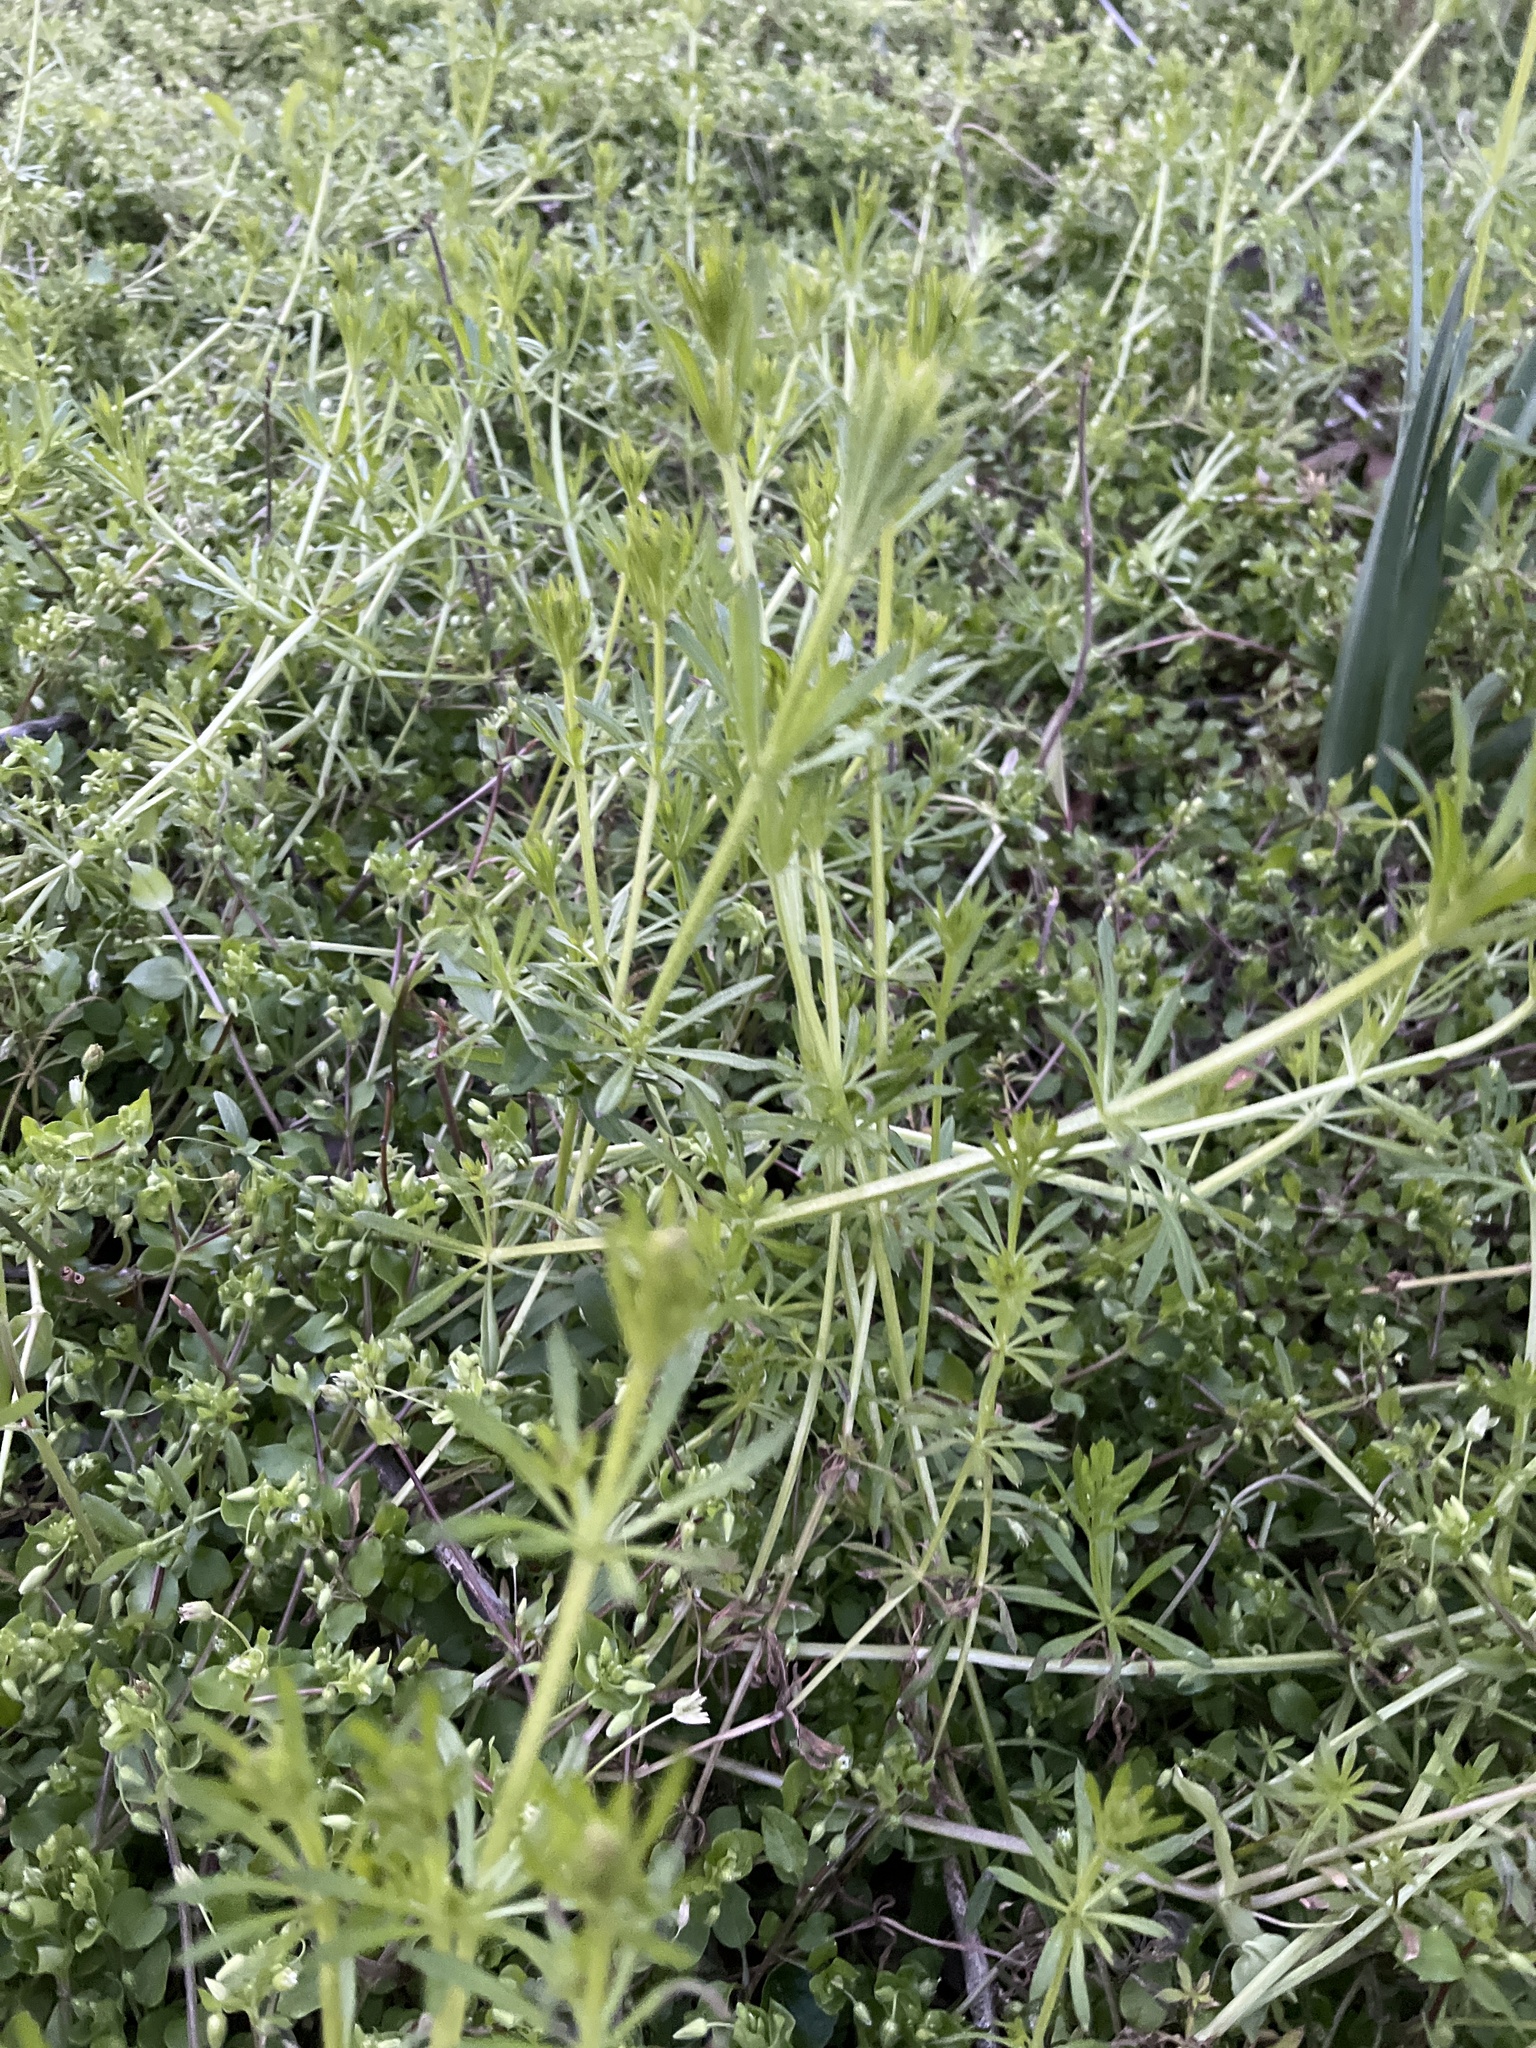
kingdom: Plantae
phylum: Tracheophyta
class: Magnoliopsida
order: Gentianales
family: Rubiaceae
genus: Galium
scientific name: Galium aparine
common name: Cleavers
